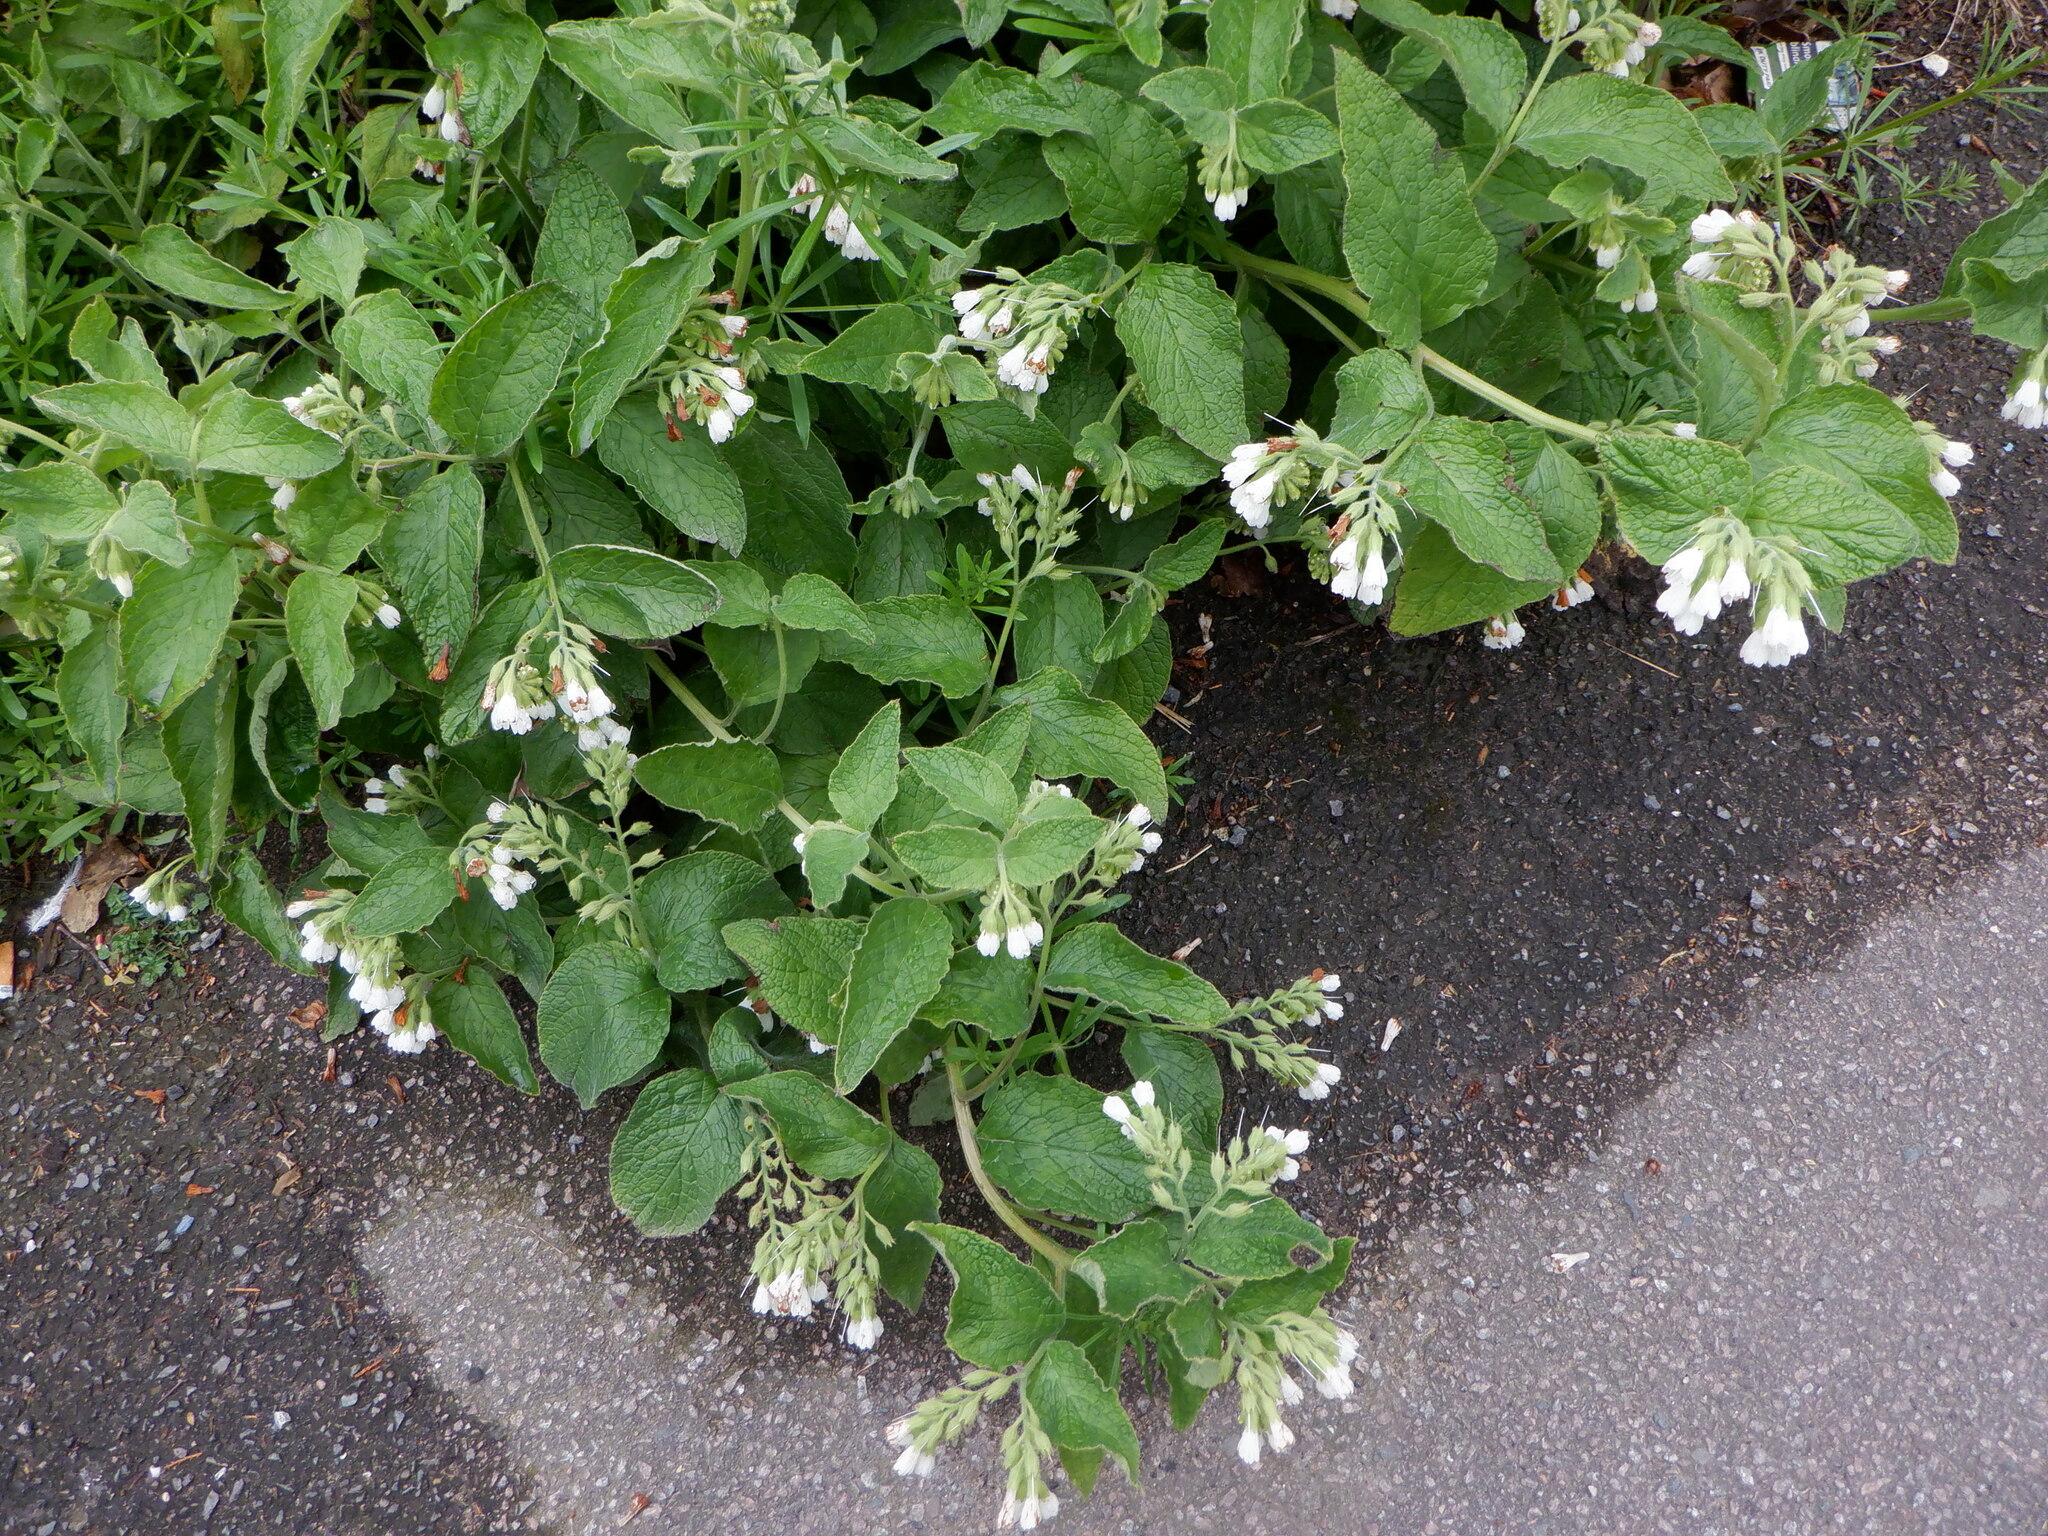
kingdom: Plantae
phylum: Tracheophyta
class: Magnoliopsida
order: Boraginales
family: Boraginaceae
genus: Symphytum
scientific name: Symphytum orientale
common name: White comfrey
